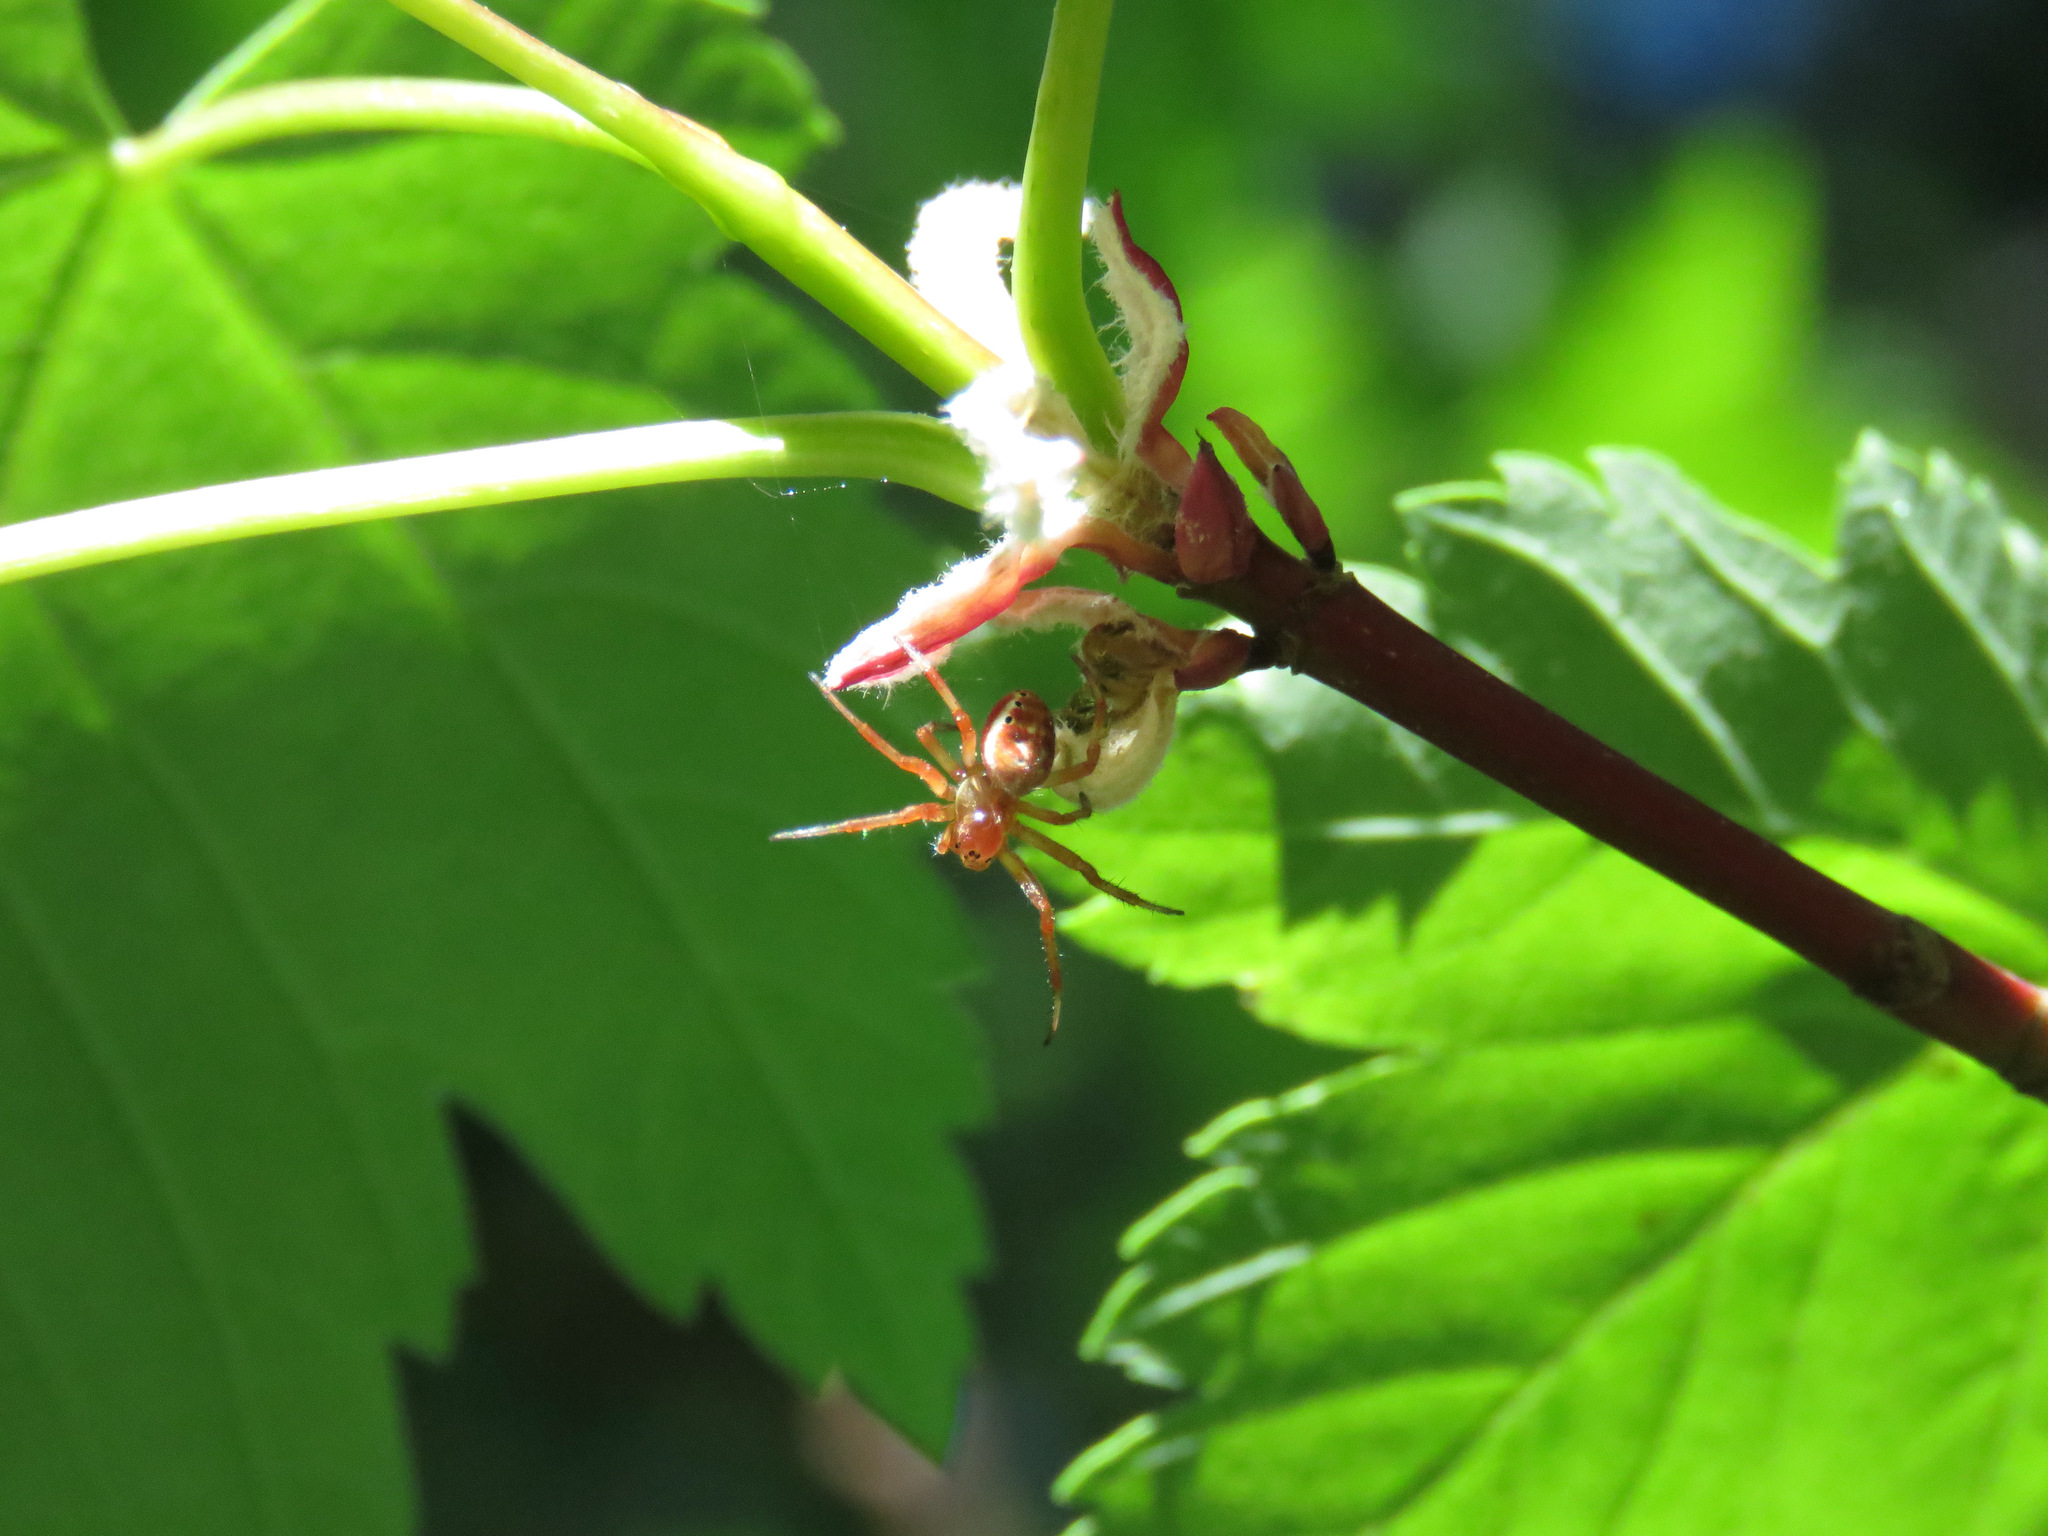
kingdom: Animalia
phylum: Arthropoda
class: Arachnida
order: Araneae
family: Araneidae
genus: Araniella
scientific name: Araniella displicata
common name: Sixspotted orb weaver
